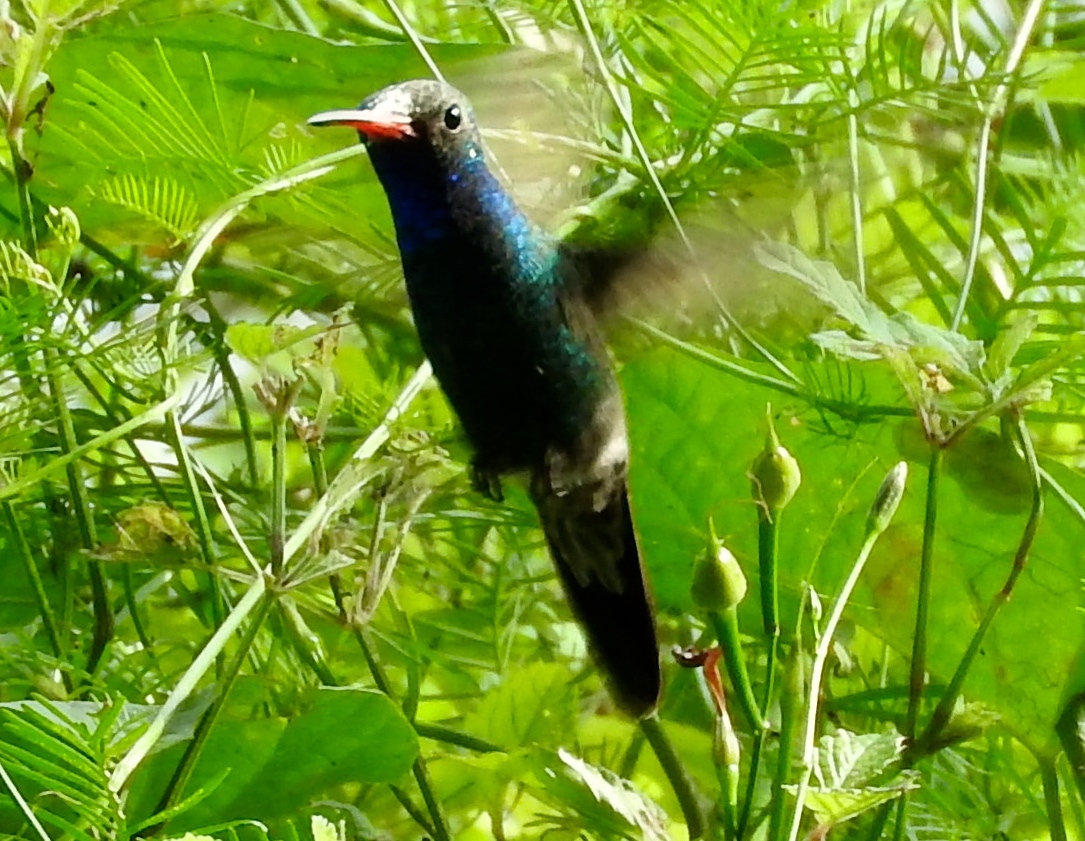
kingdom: Animalia
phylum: Chordata
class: Aves
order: Apodiformes
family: Trochilidae
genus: Cynanthus
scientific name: Cynanthus latirostris
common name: Broad-billed hummingbird
